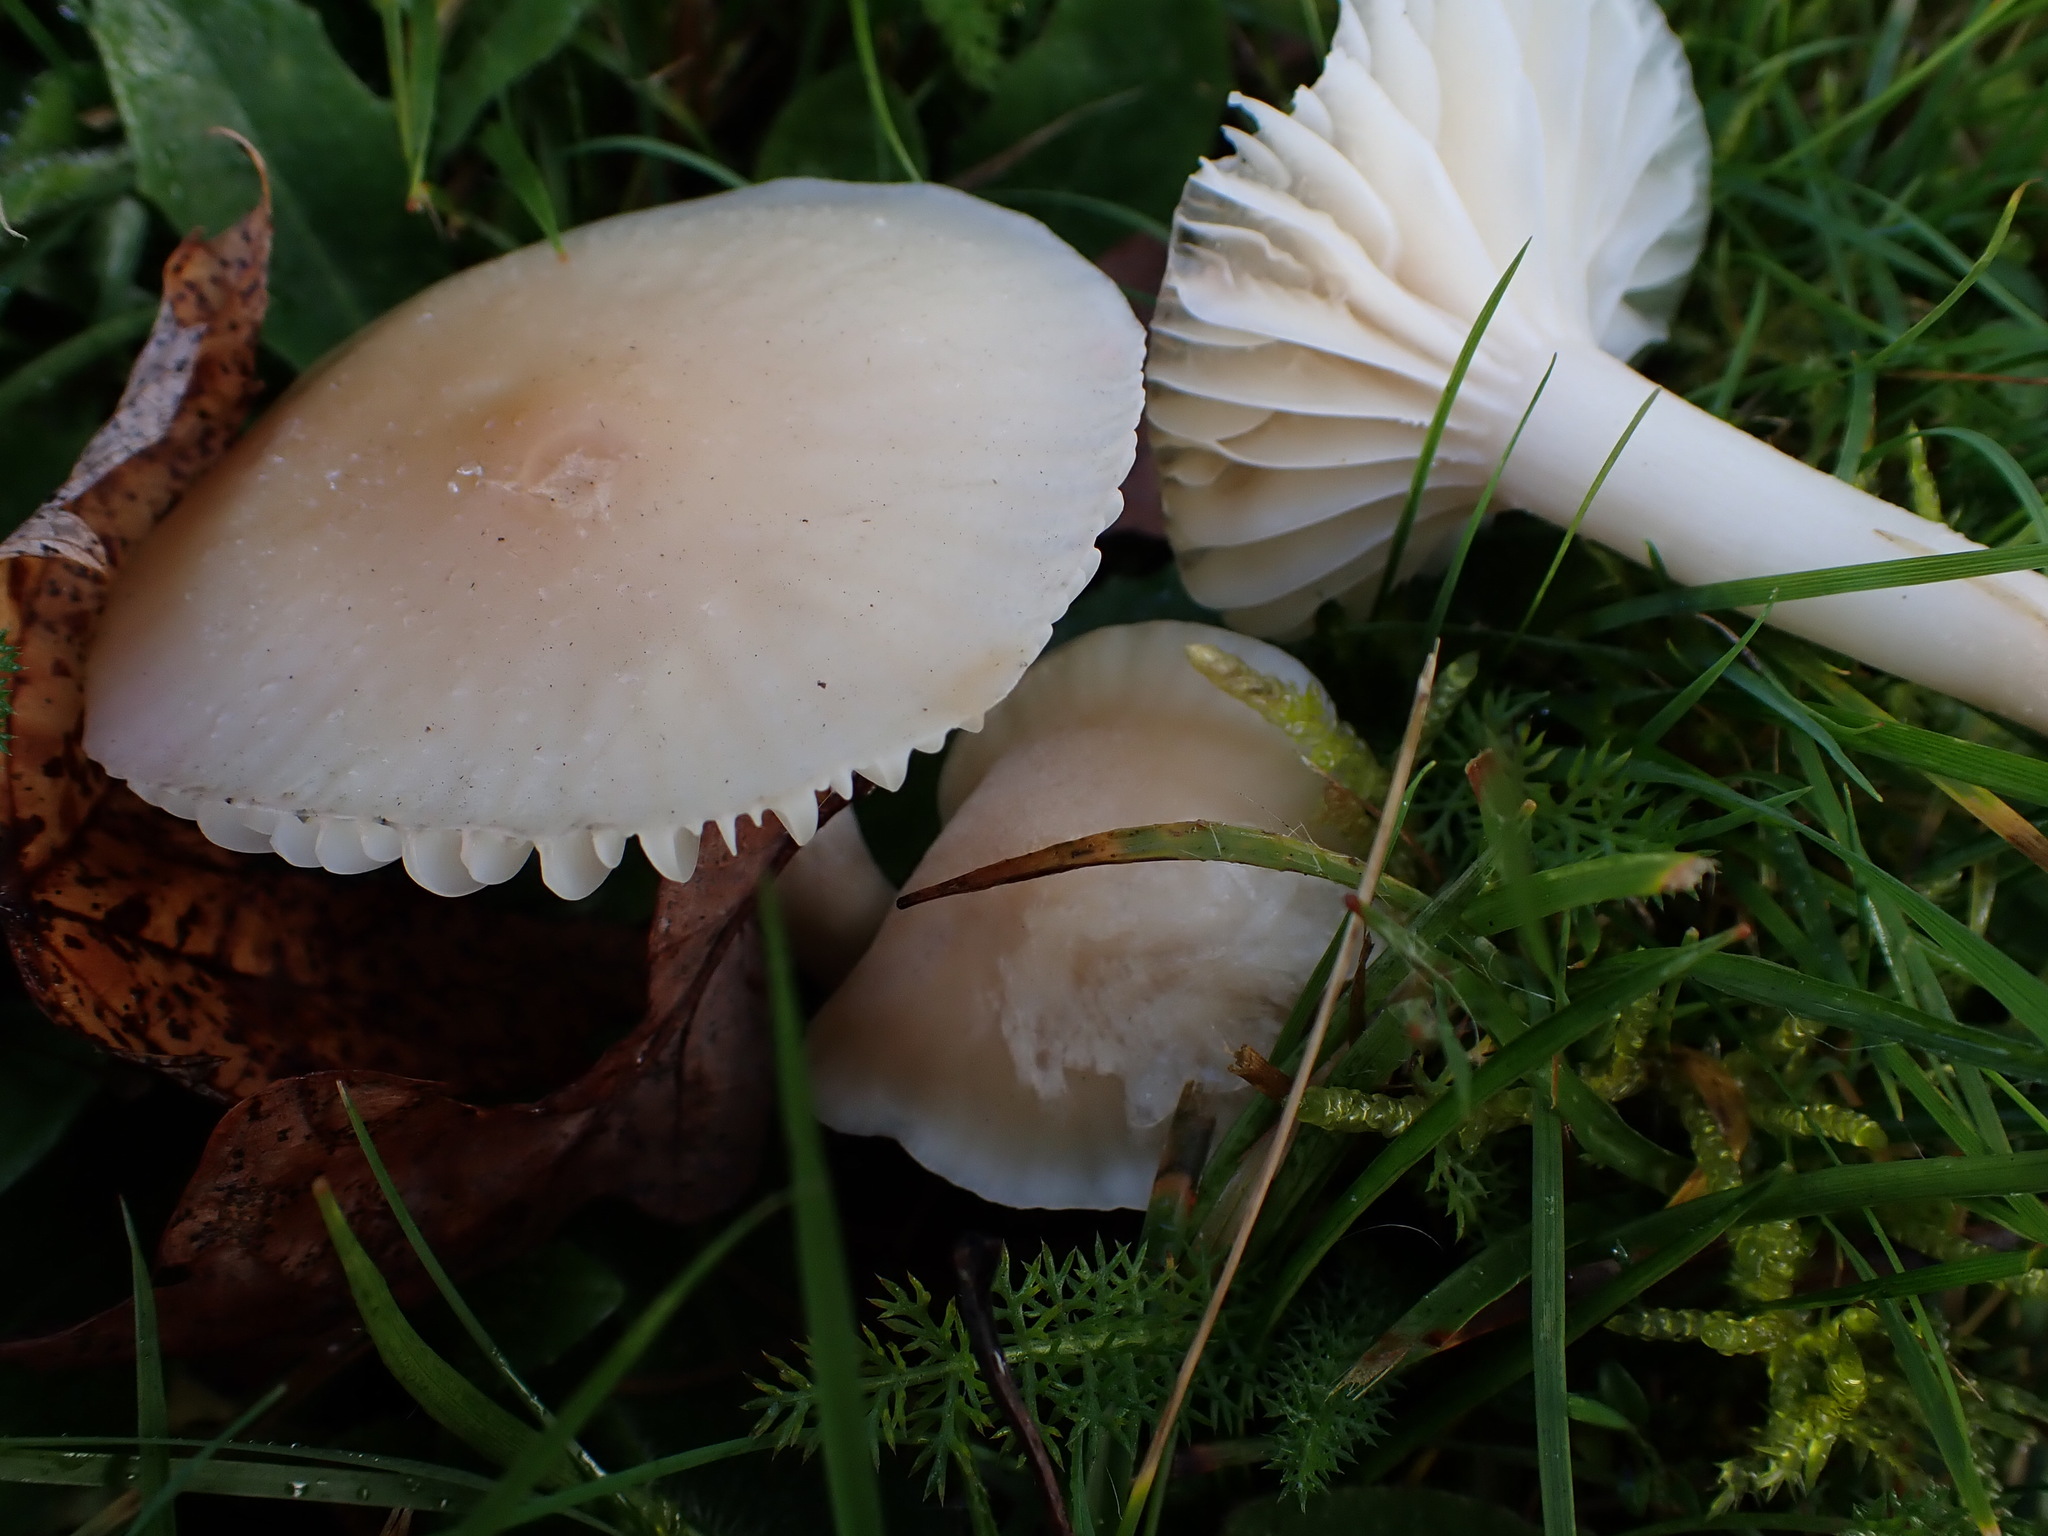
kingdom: Fungi
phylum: Basidiomycota
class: Agaricomycetes
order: Agaricales
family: Hygrophoraceae
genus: Cuphophyllus
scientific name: Cuphophyllus virgineus
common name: Snowy waxcap
